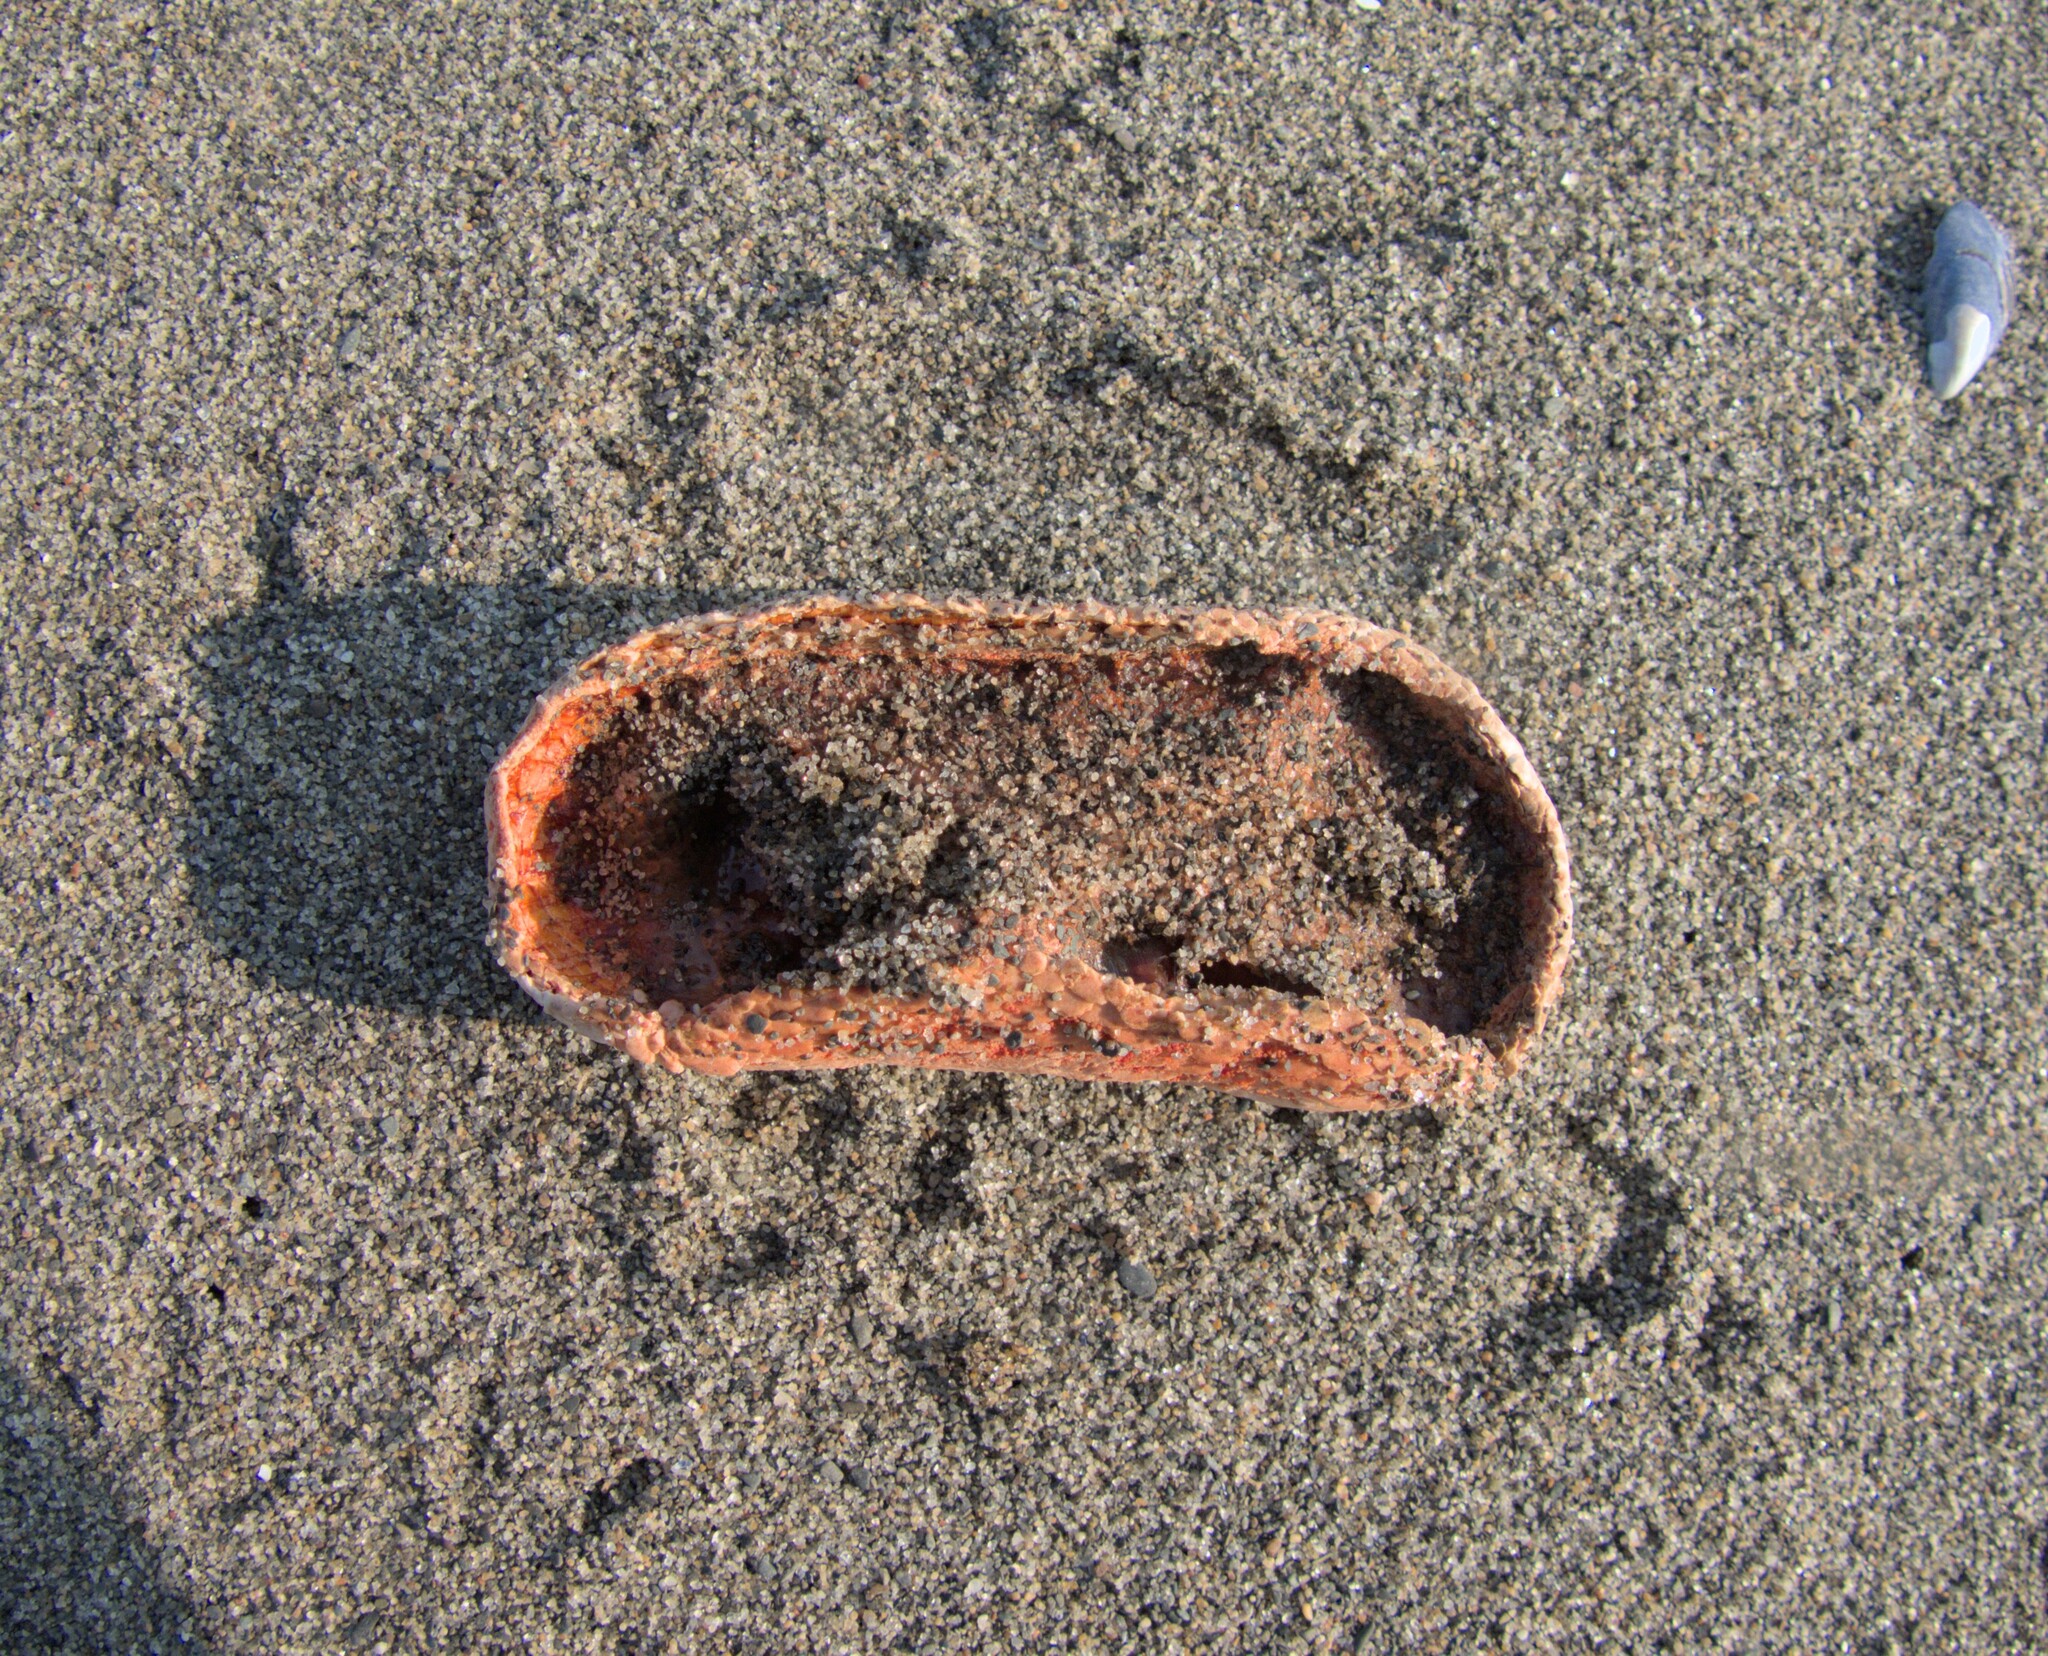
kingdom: Animalia
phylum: Echinodermata
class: Holothuroidea
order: Dendrochirotida
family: Psolidae
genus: Psolus
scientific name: Psolus fabricii
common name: Scarlet psolus
